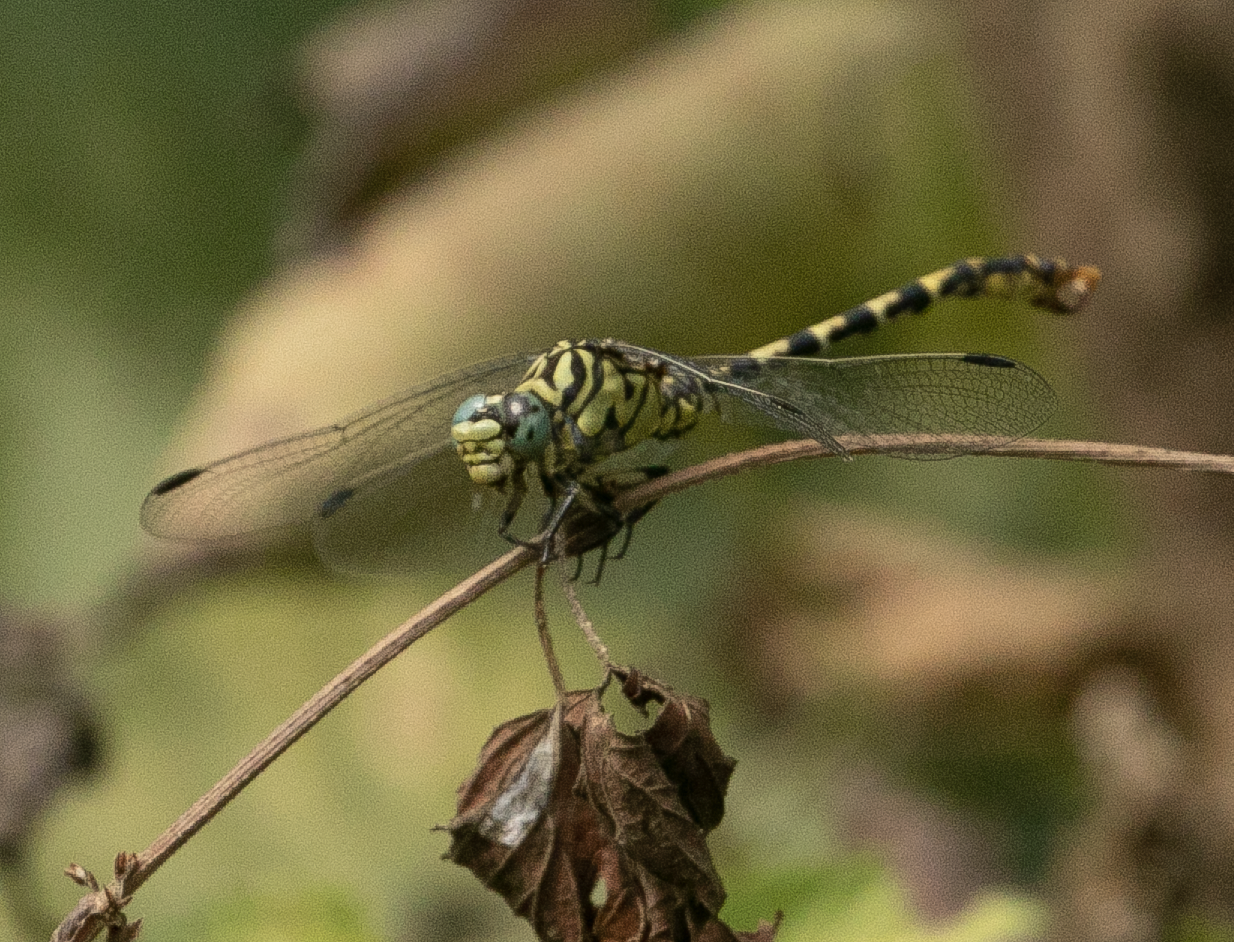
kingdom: Animalia
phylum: Arthropoda
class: Insecta
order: Odonata
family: Gomphidae
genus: Onychogomphus
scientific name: Onychogomphus forcipatus
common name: Small pincertail
